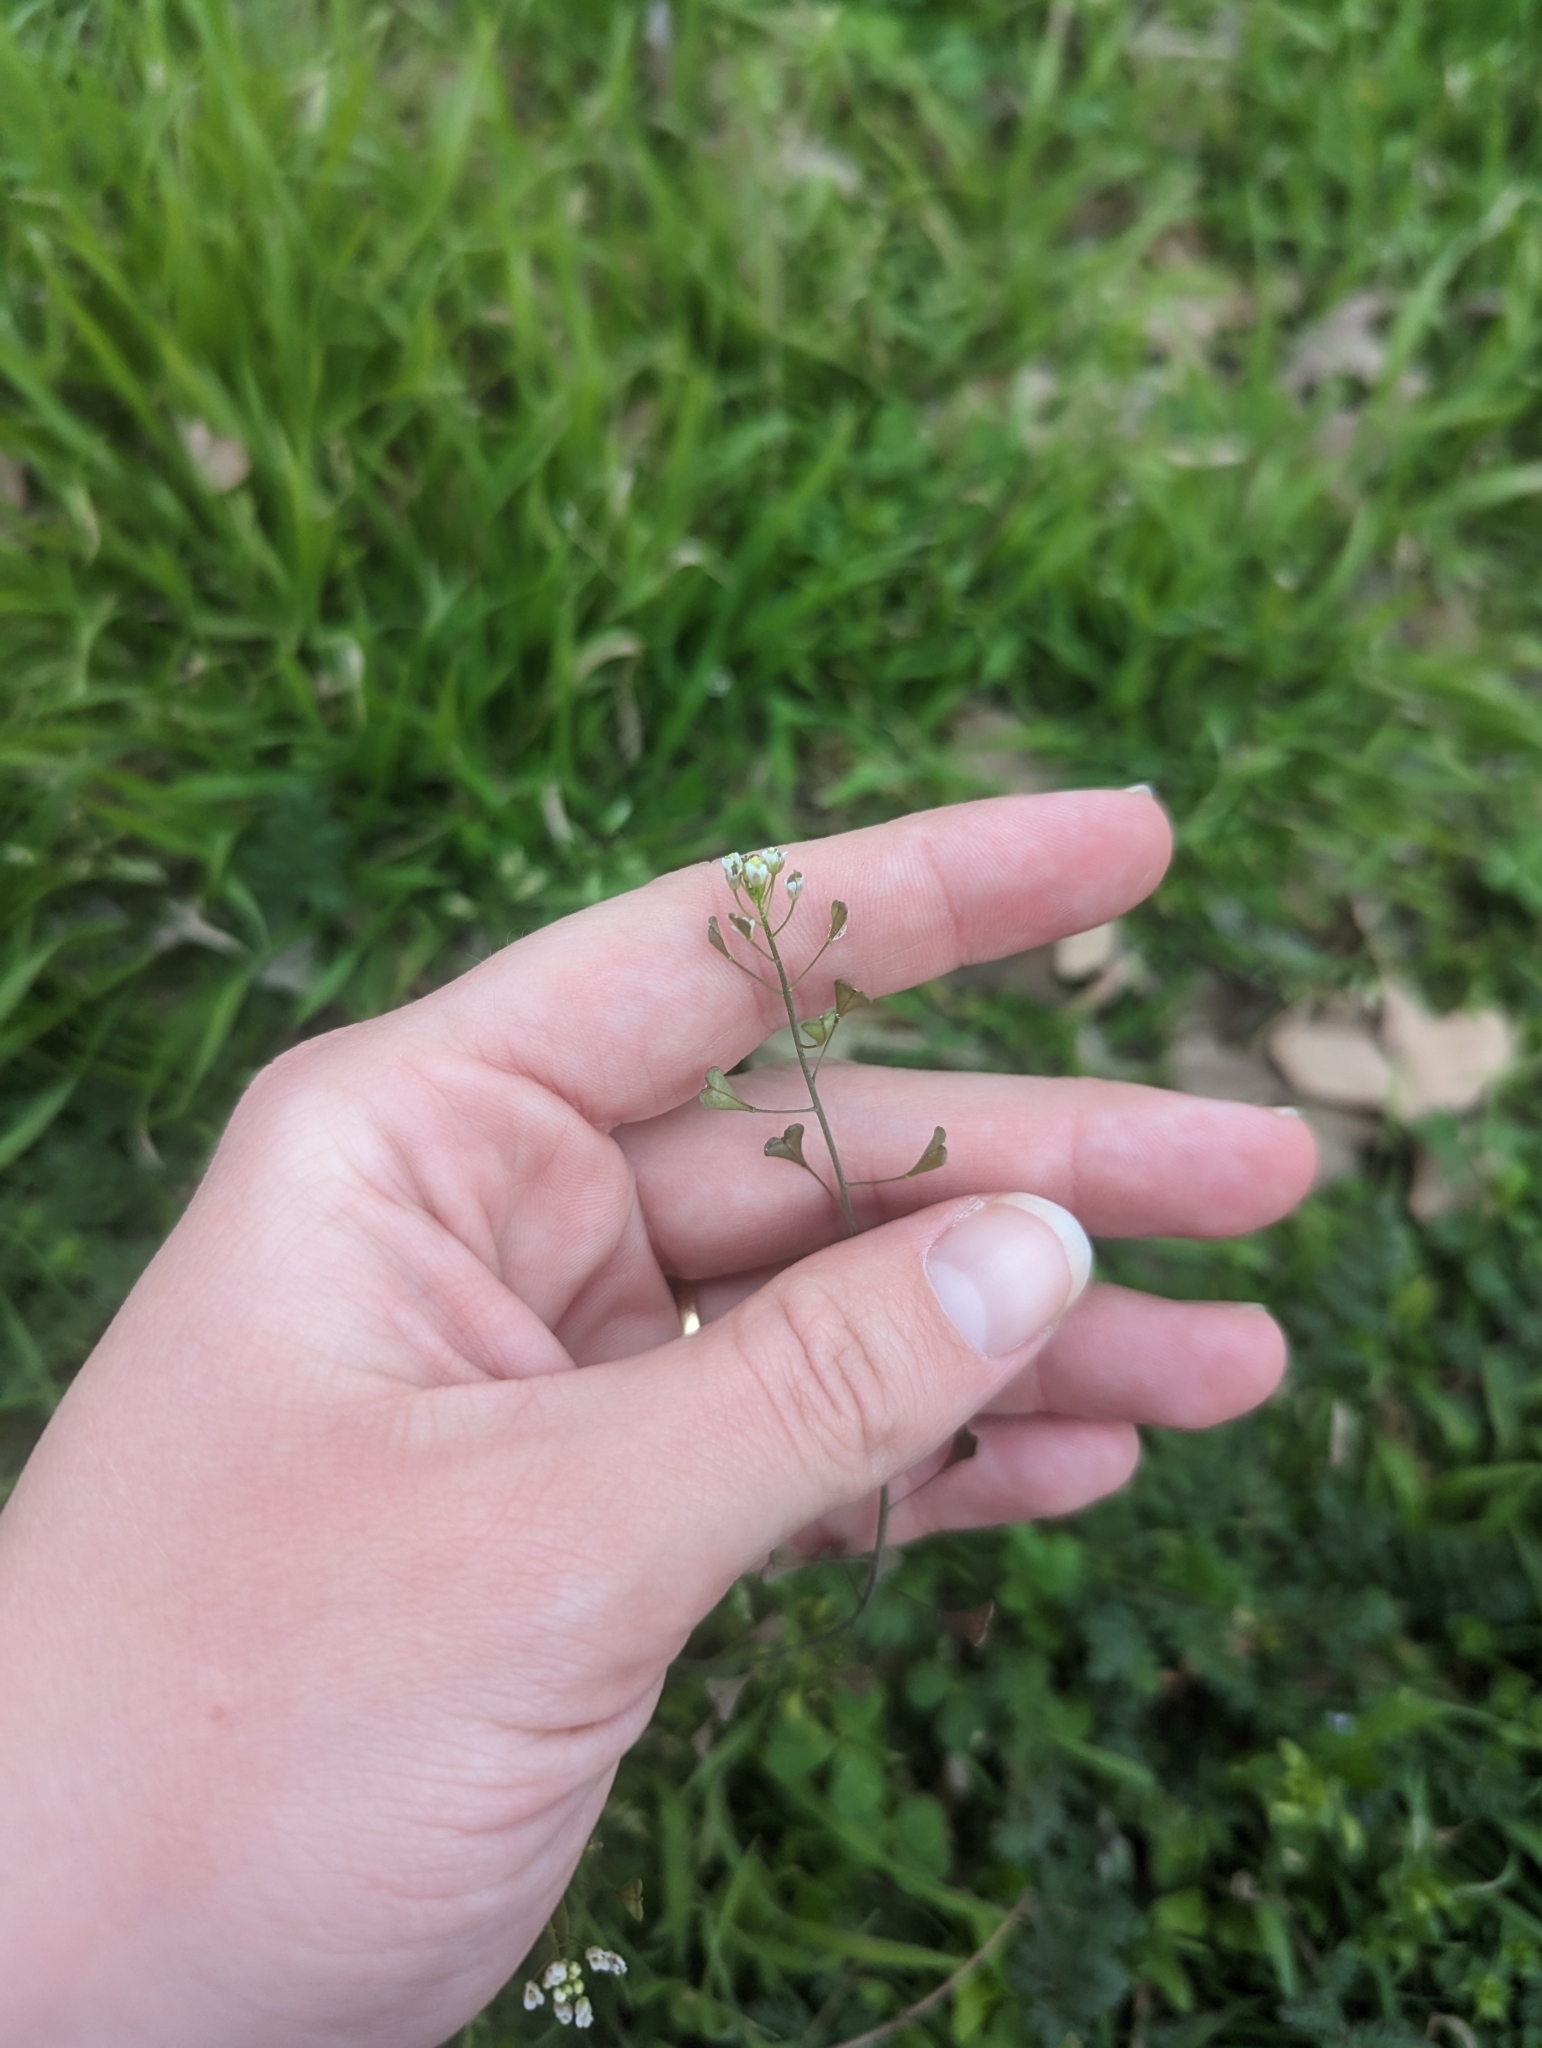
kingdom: Plantae
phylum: Tracheophyta
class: Magnoliopsida
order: Brassicales
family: Brassicaceae
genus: Capsella
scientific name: Capsella bursa-pastoris
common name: Shepherd's purse
